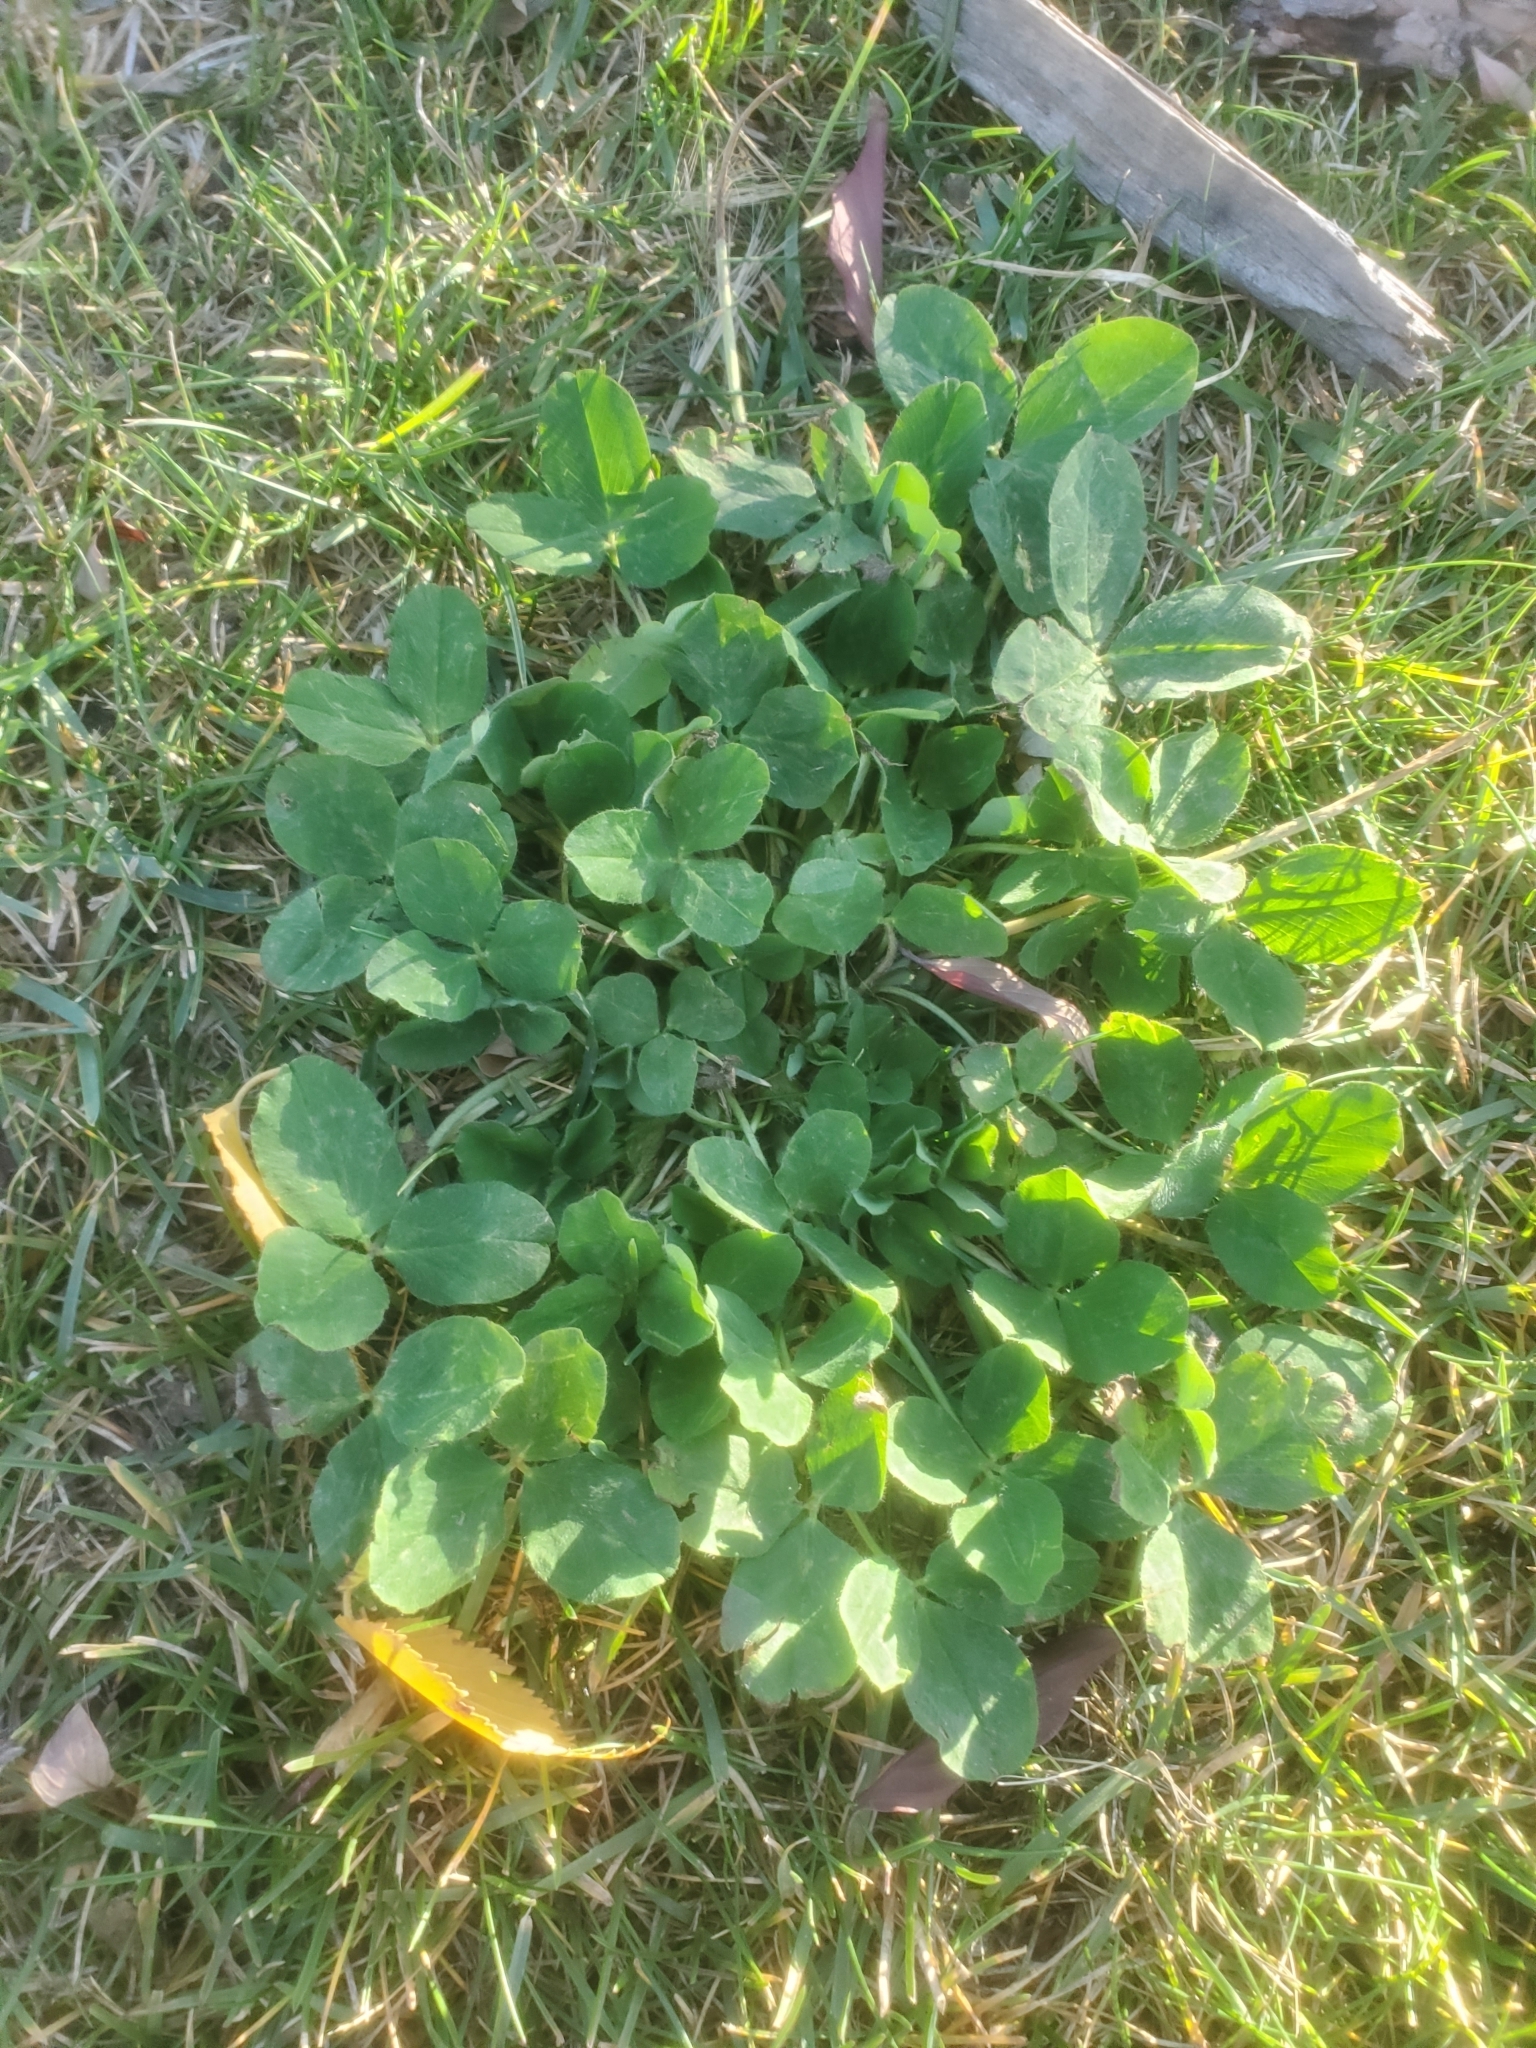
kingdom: Plantae
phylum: Tracheophyta
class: Magnoliopsida
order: Fabales
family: Fabaceae
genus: Trifolium
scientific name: Trifolium pratense
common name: Red clover
